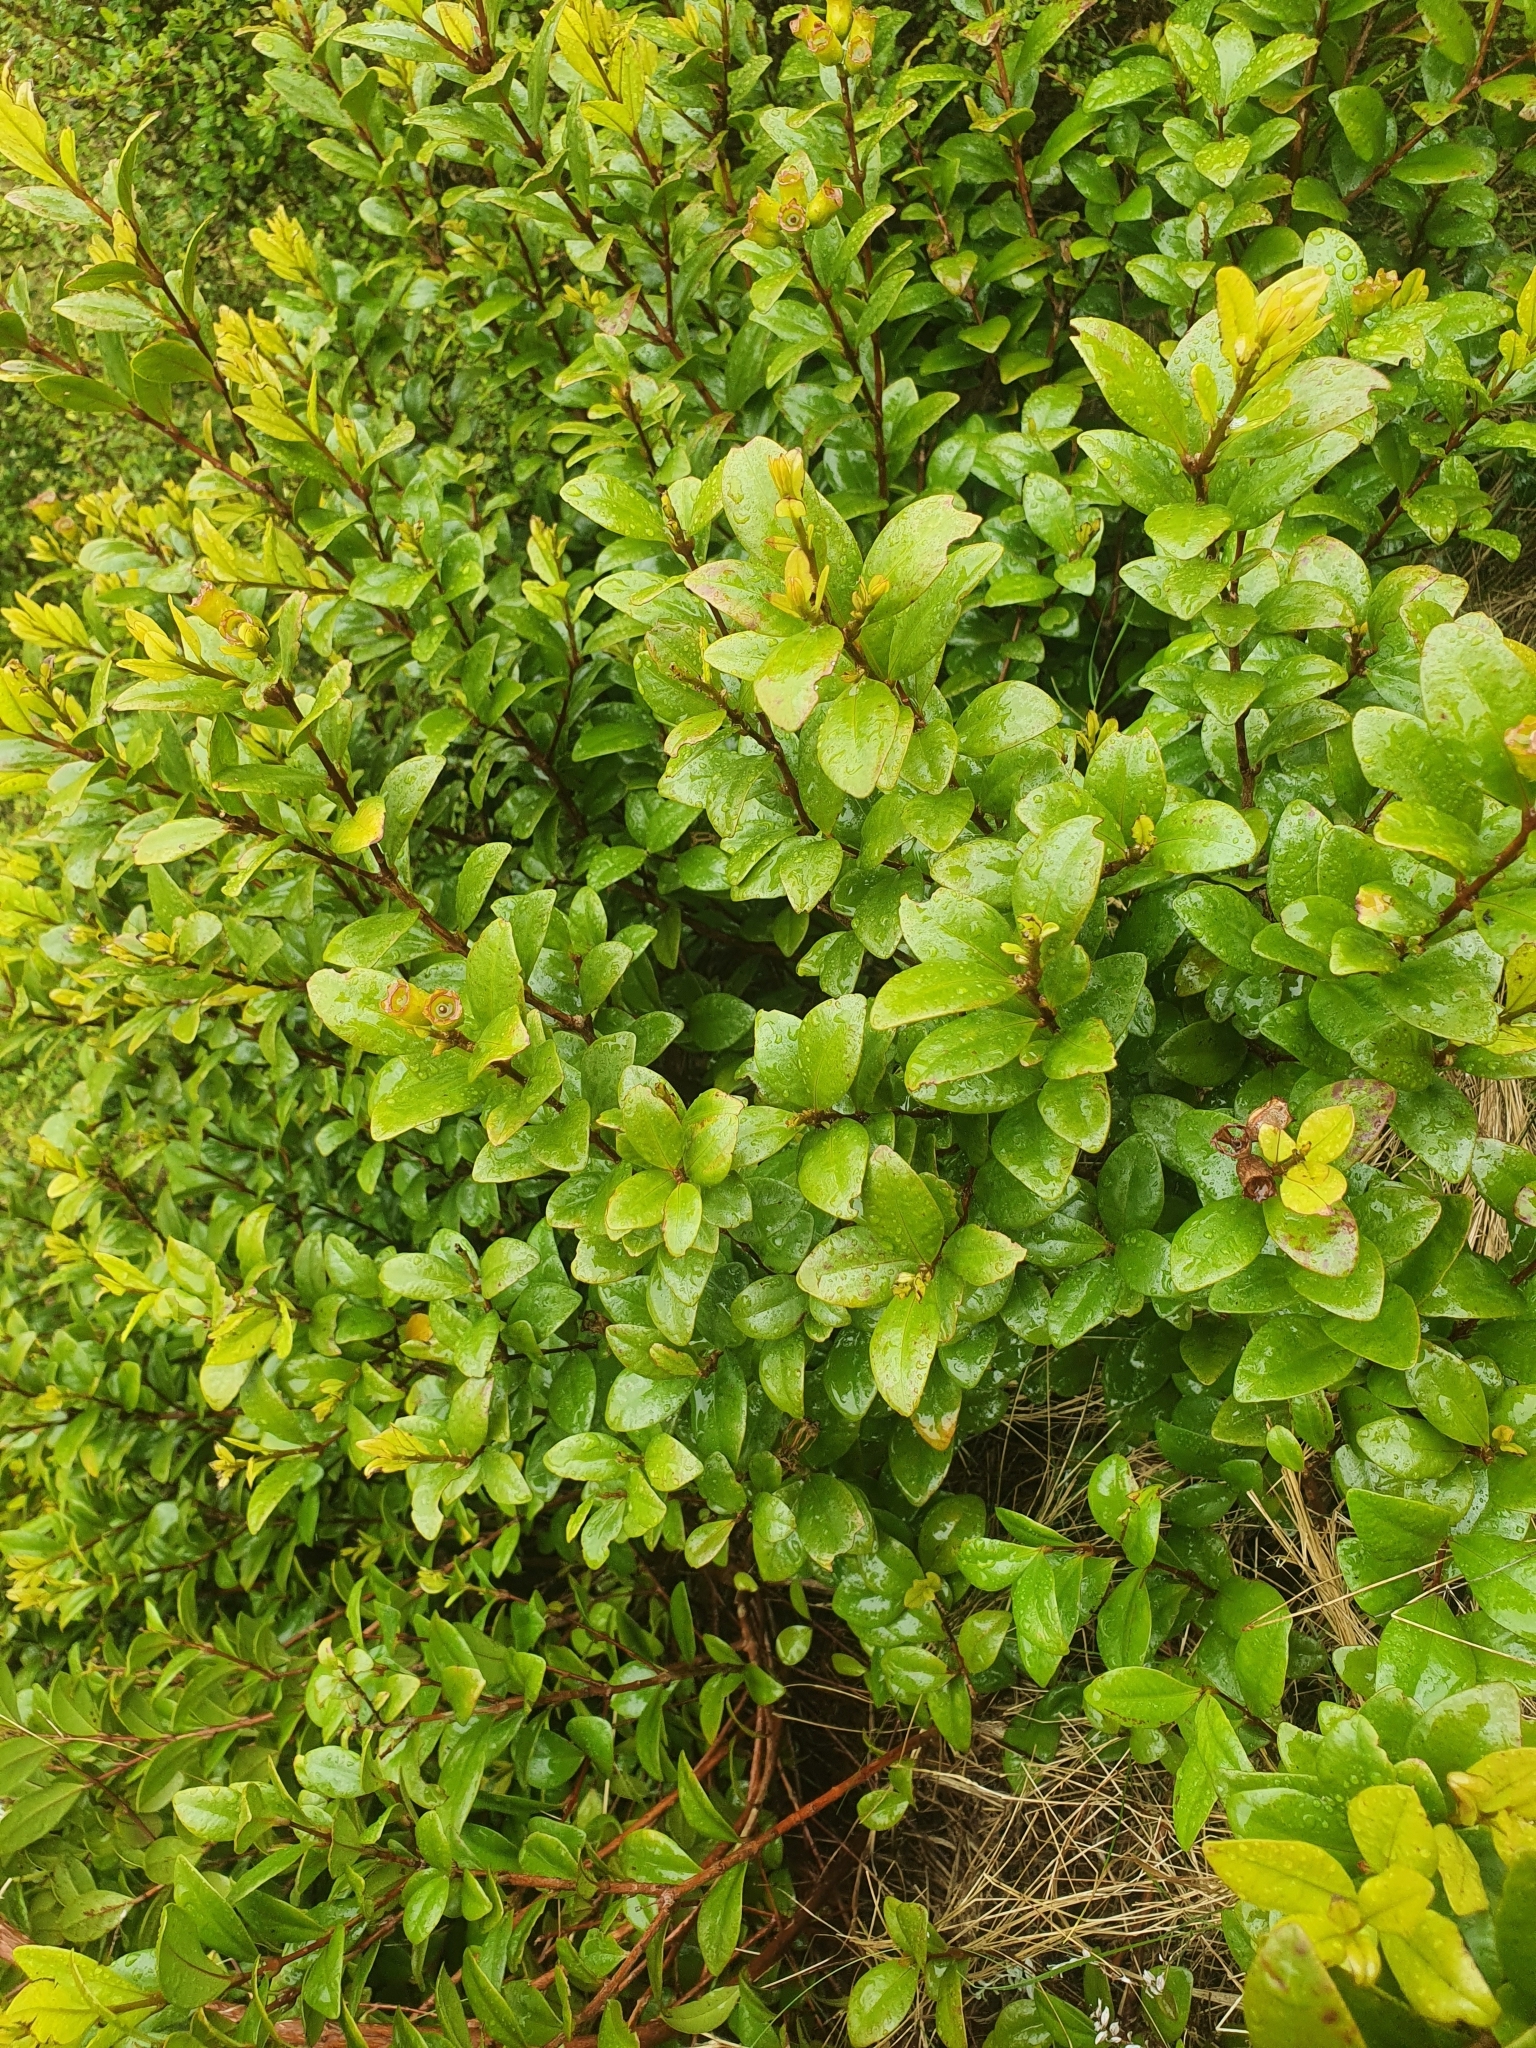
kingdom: Plantae
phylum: Tracheophyta
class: Magnoliopsida
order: Myrtales
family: Myrtaceae
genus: Metrosideros
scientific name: Metrosideros fulgens
